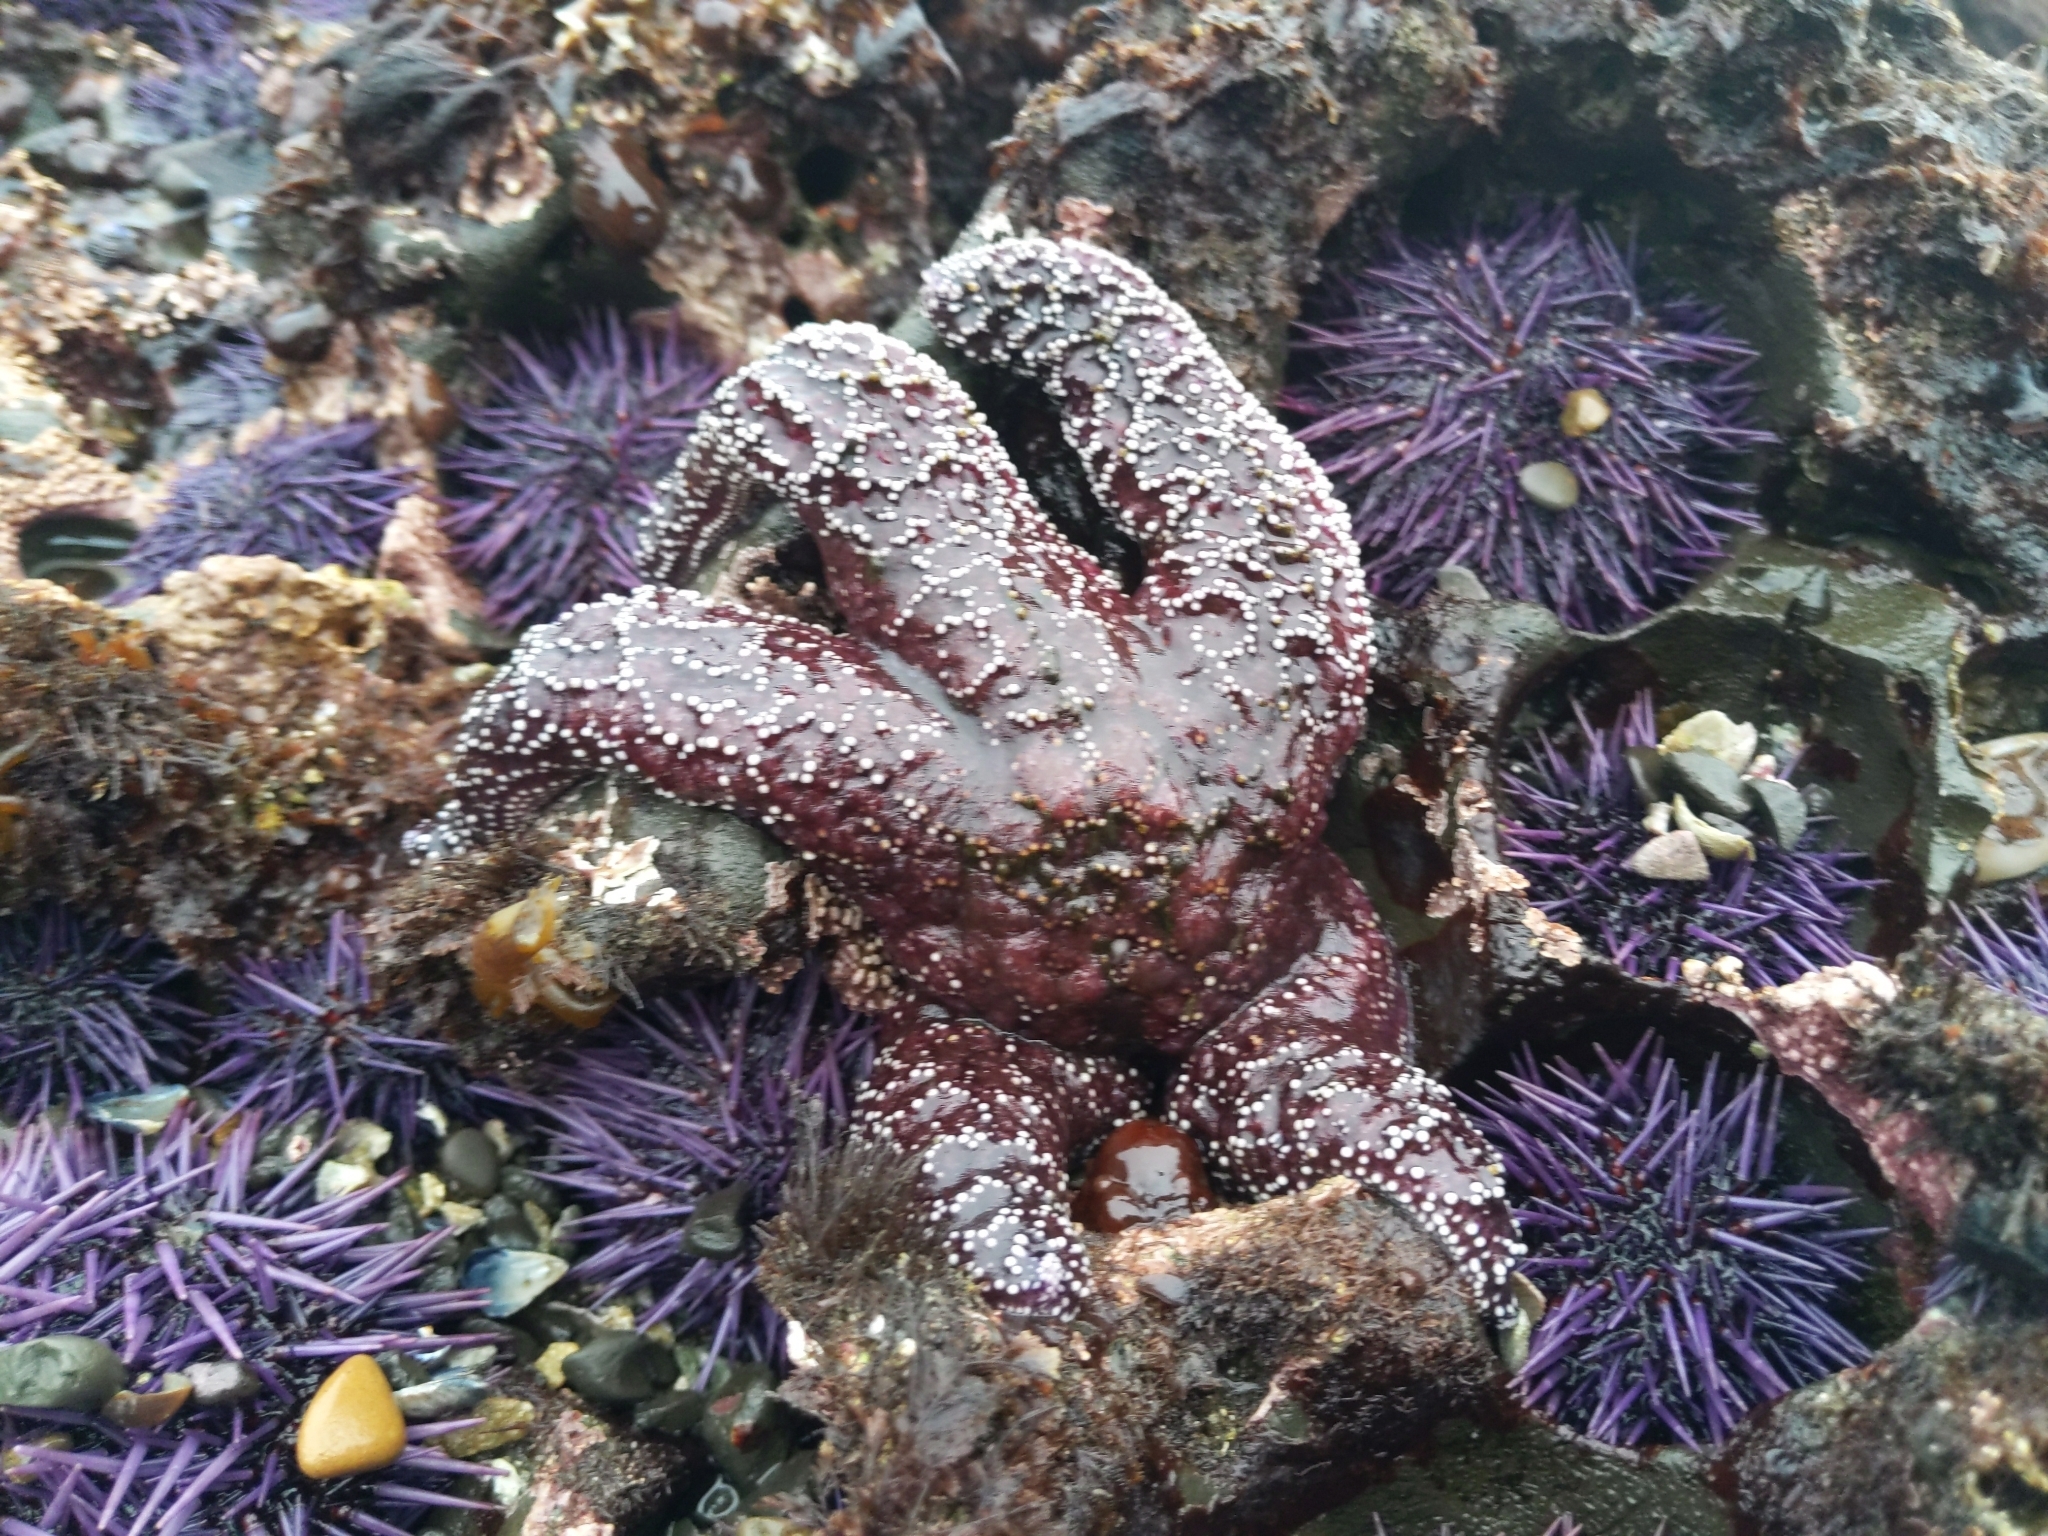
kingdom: Animalia
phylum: Echinodermata
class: Asteroidea
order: Forcipulatida
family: Asteriidae
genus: Pisaster
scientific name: Pisaster ochraceus
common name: Ochre stars
